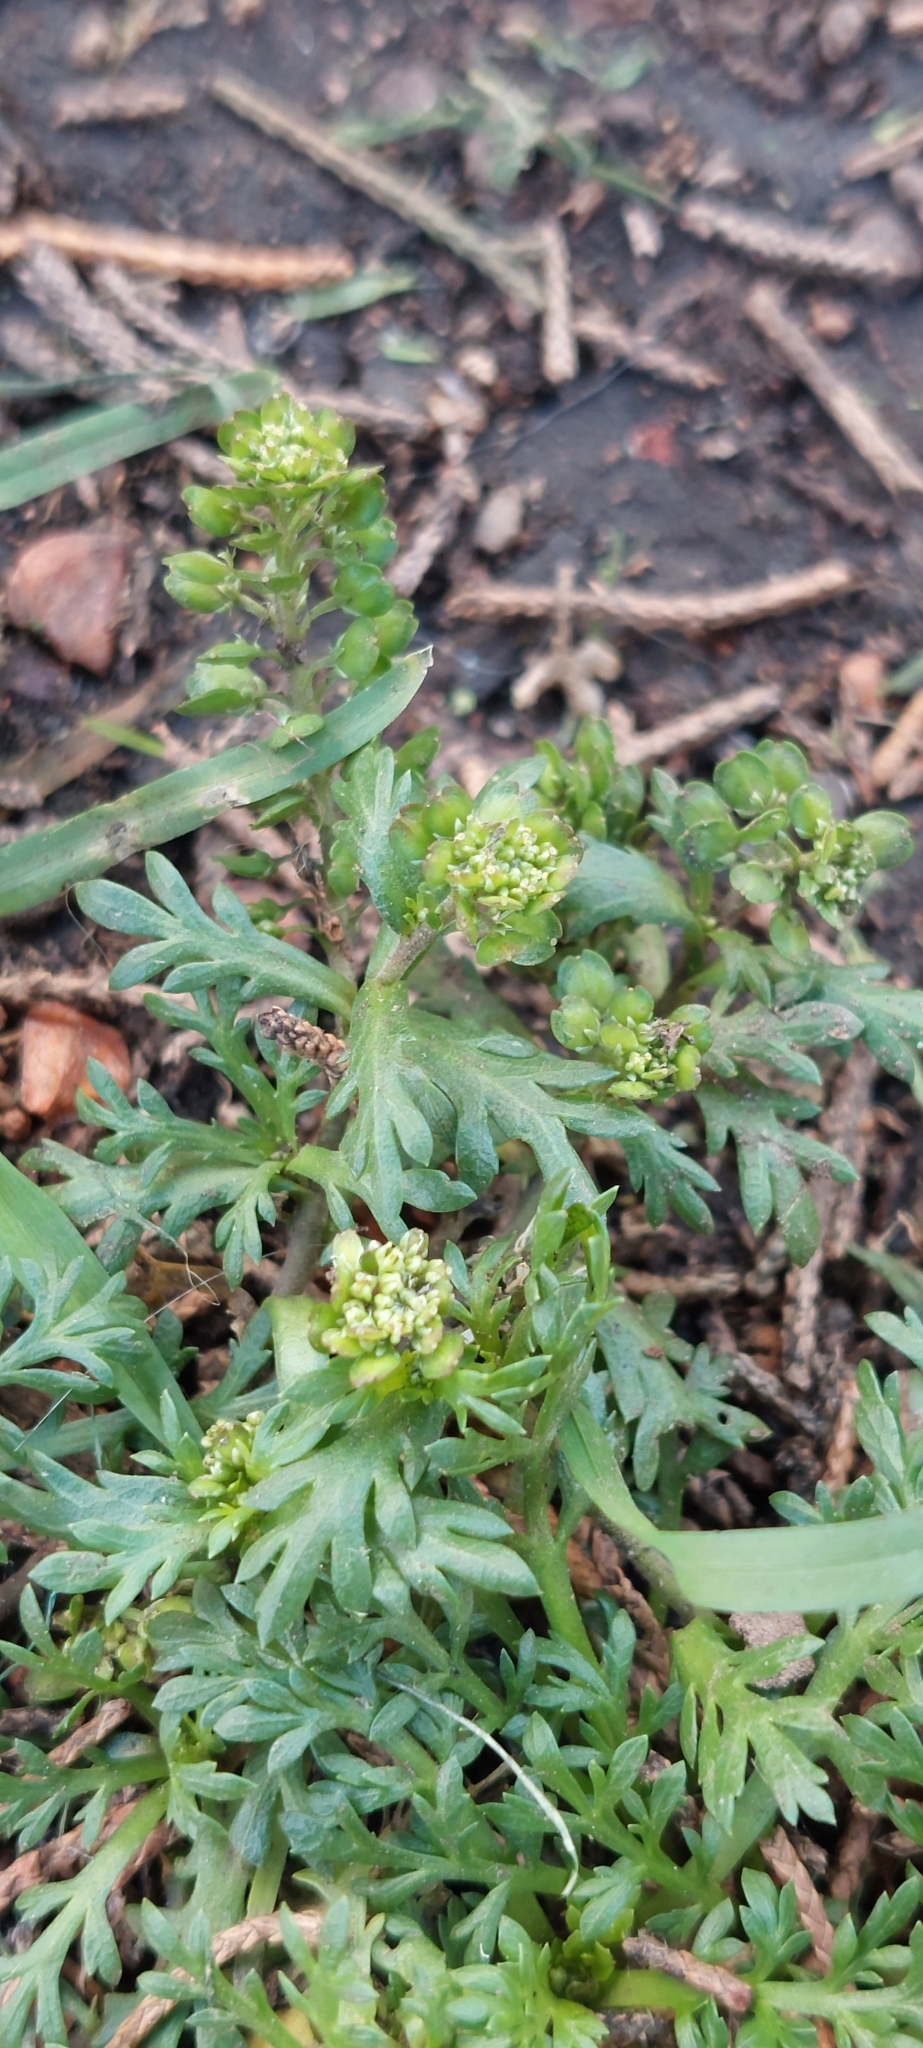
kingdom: Plantae
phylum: Tracheophyta
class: Magnoliopsida
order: Brassicales
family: Brassicaceae
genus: Lepidium
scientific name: Lepidium bipinnatifidum
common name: Wayside pepperwort
